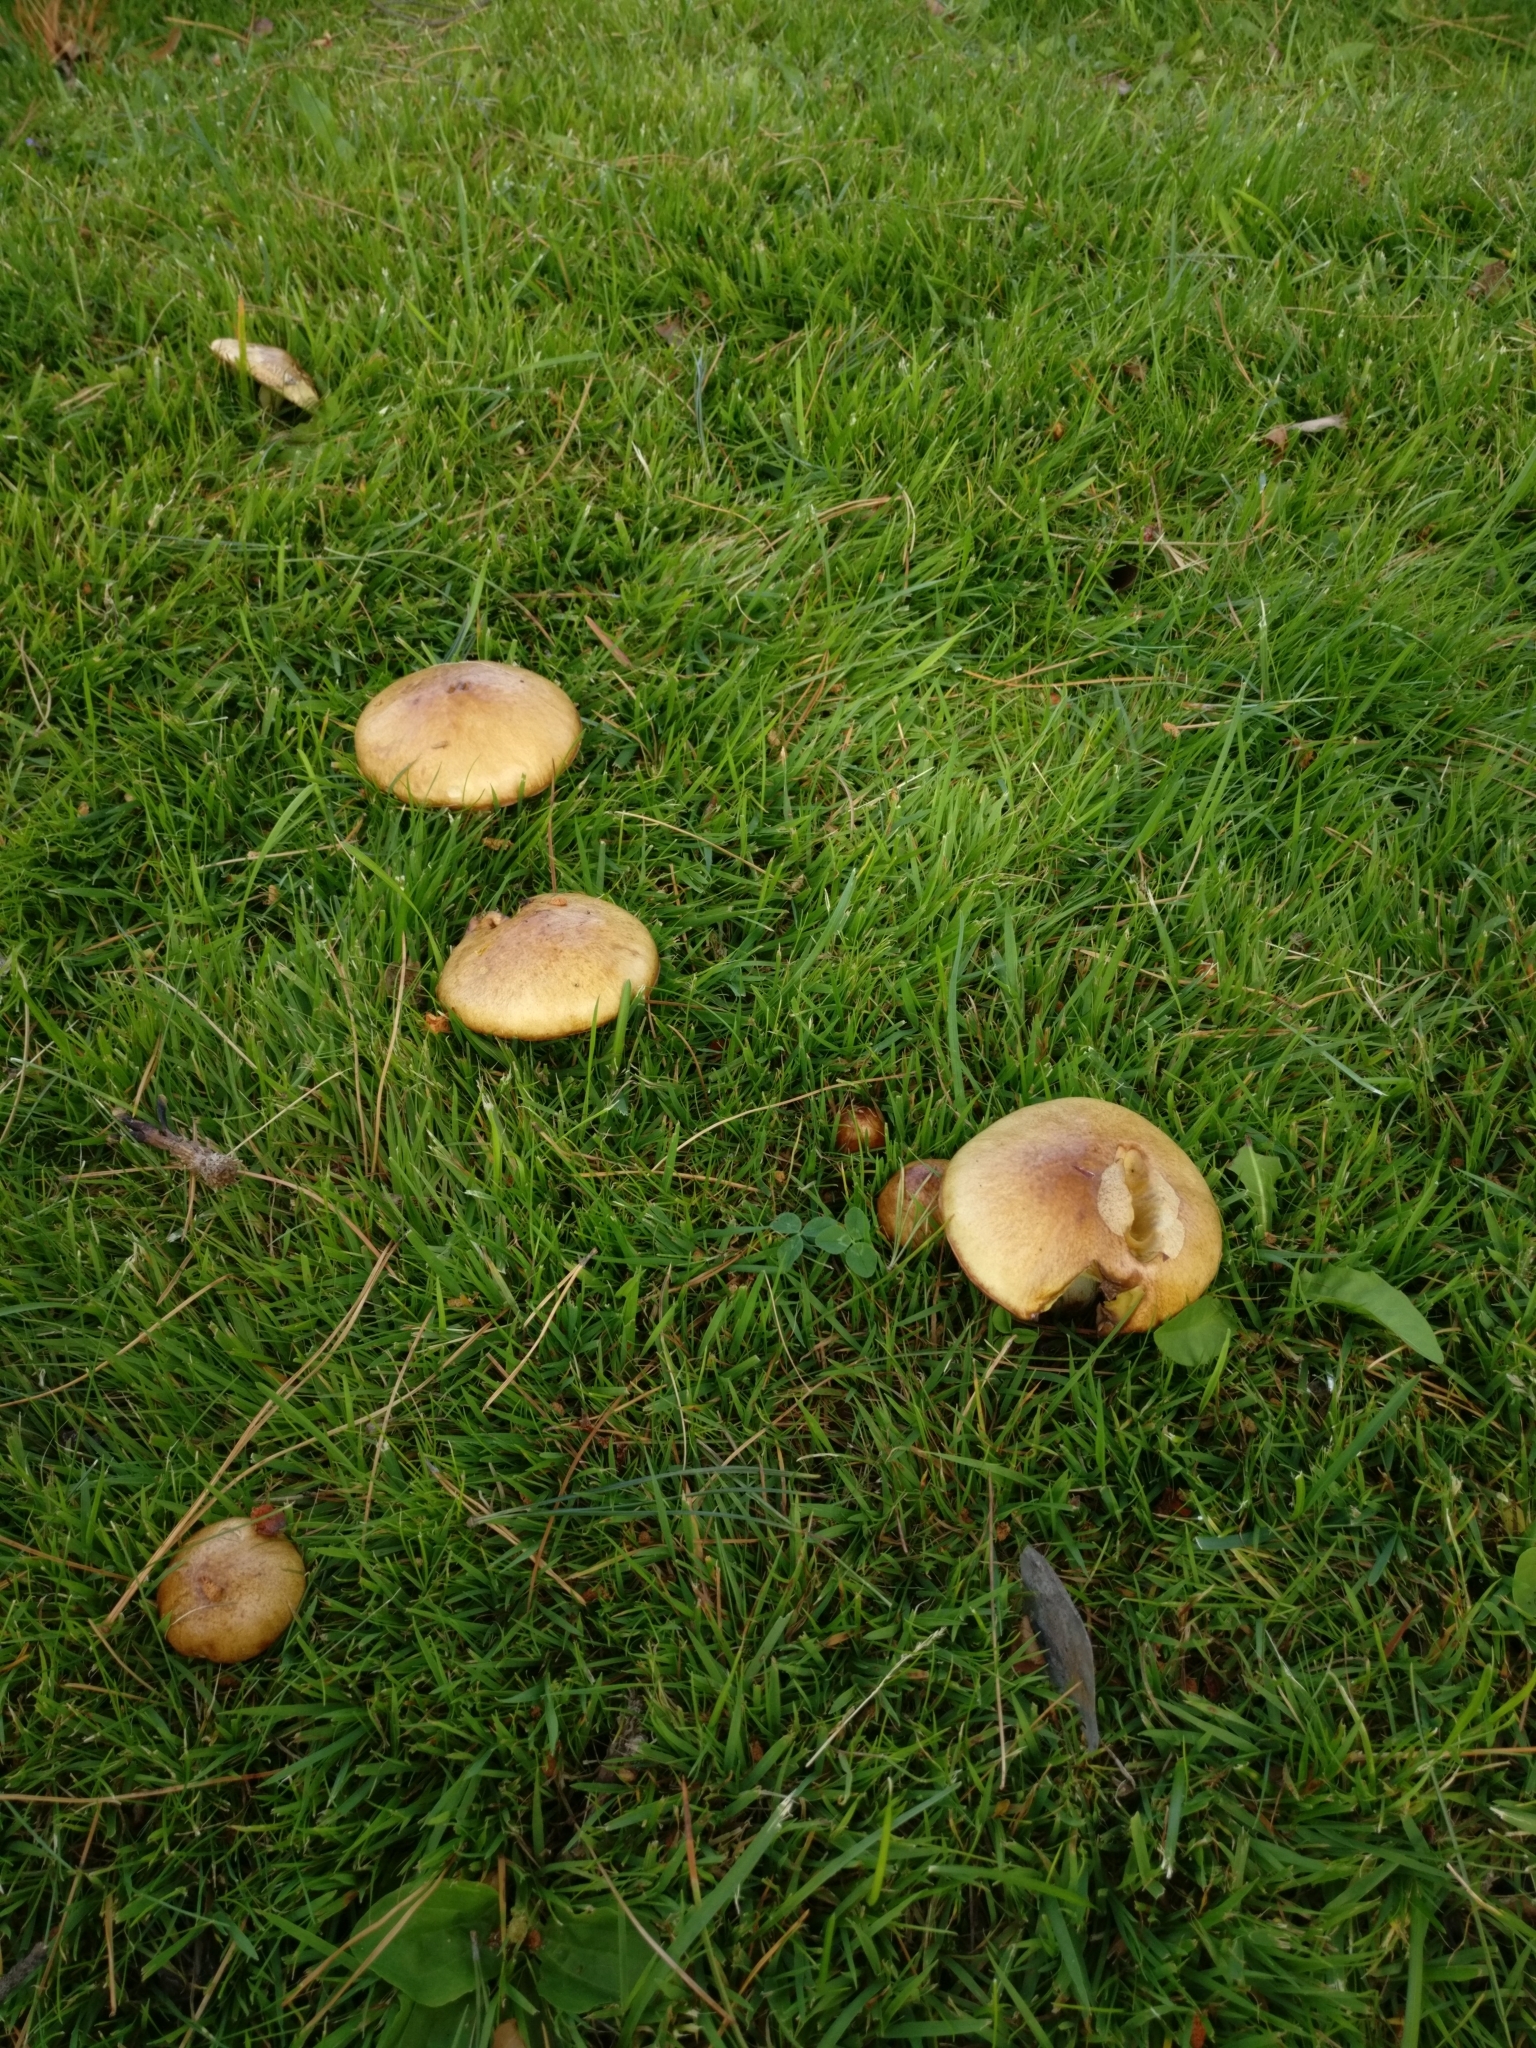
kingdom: Fungi
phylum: Basidiomycota
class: Agaricomycetes
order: Boletales
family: Suillaceae
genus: Suillus
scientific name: Suillus granulatus
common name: Weeping bolete
